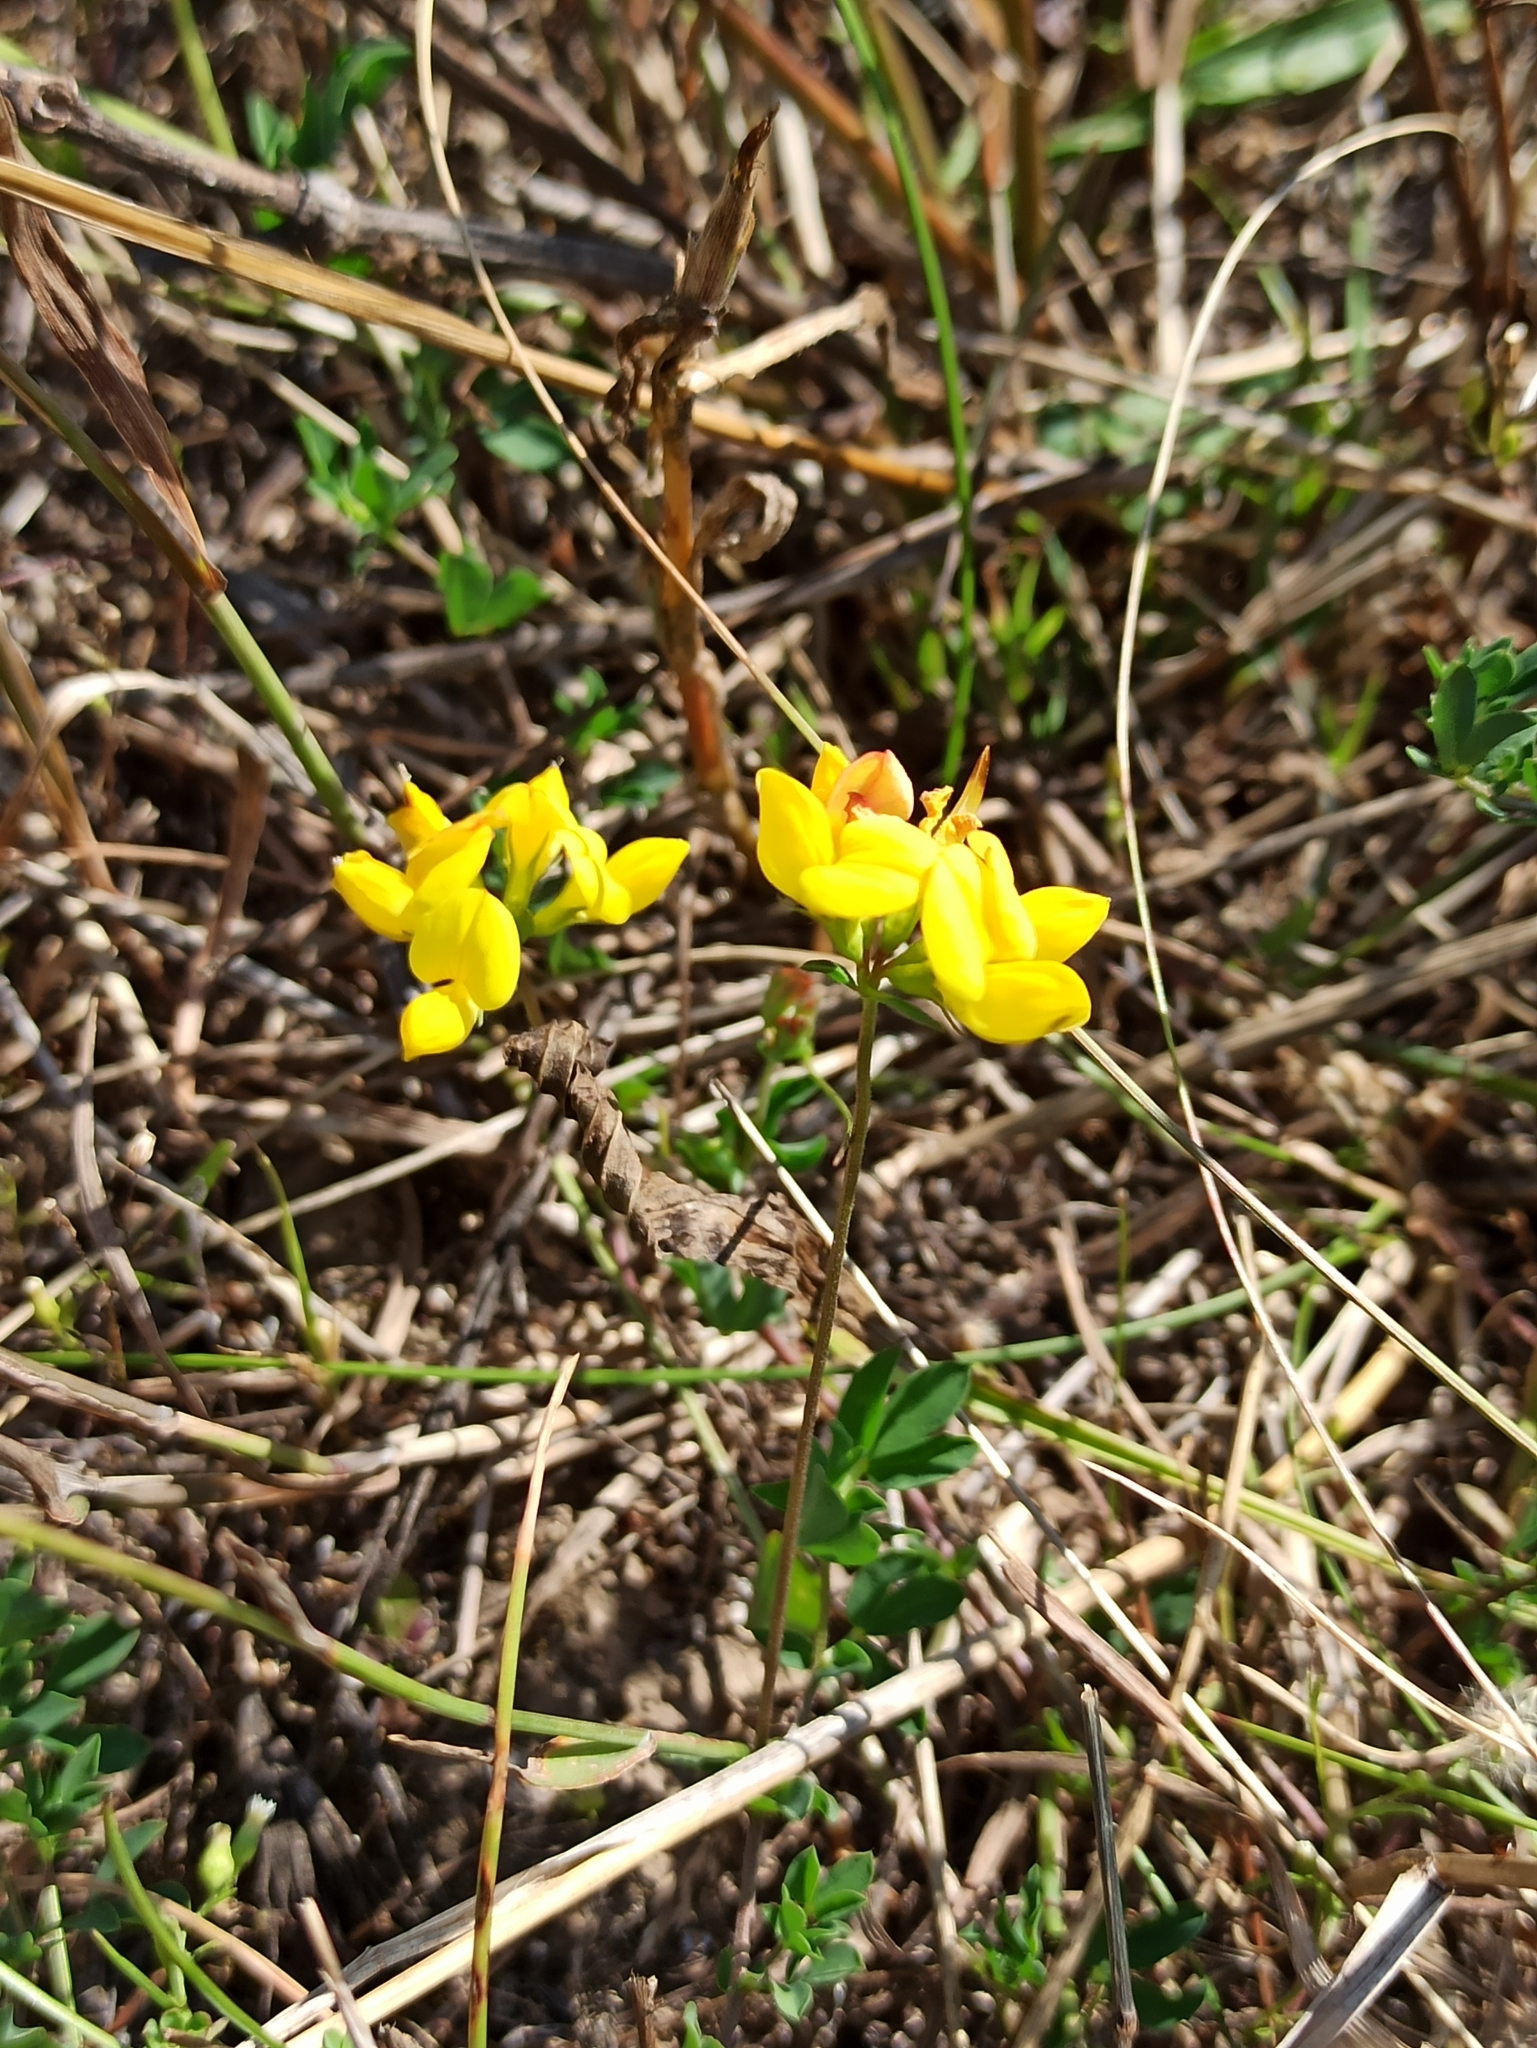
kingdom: Plantae
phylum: Tracheophyta
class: Magnoliopsida
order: Fabales
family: Fabaceae
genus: Lotus
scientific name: Lotus corniculatus
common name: Common bird's-foot-trefoil
